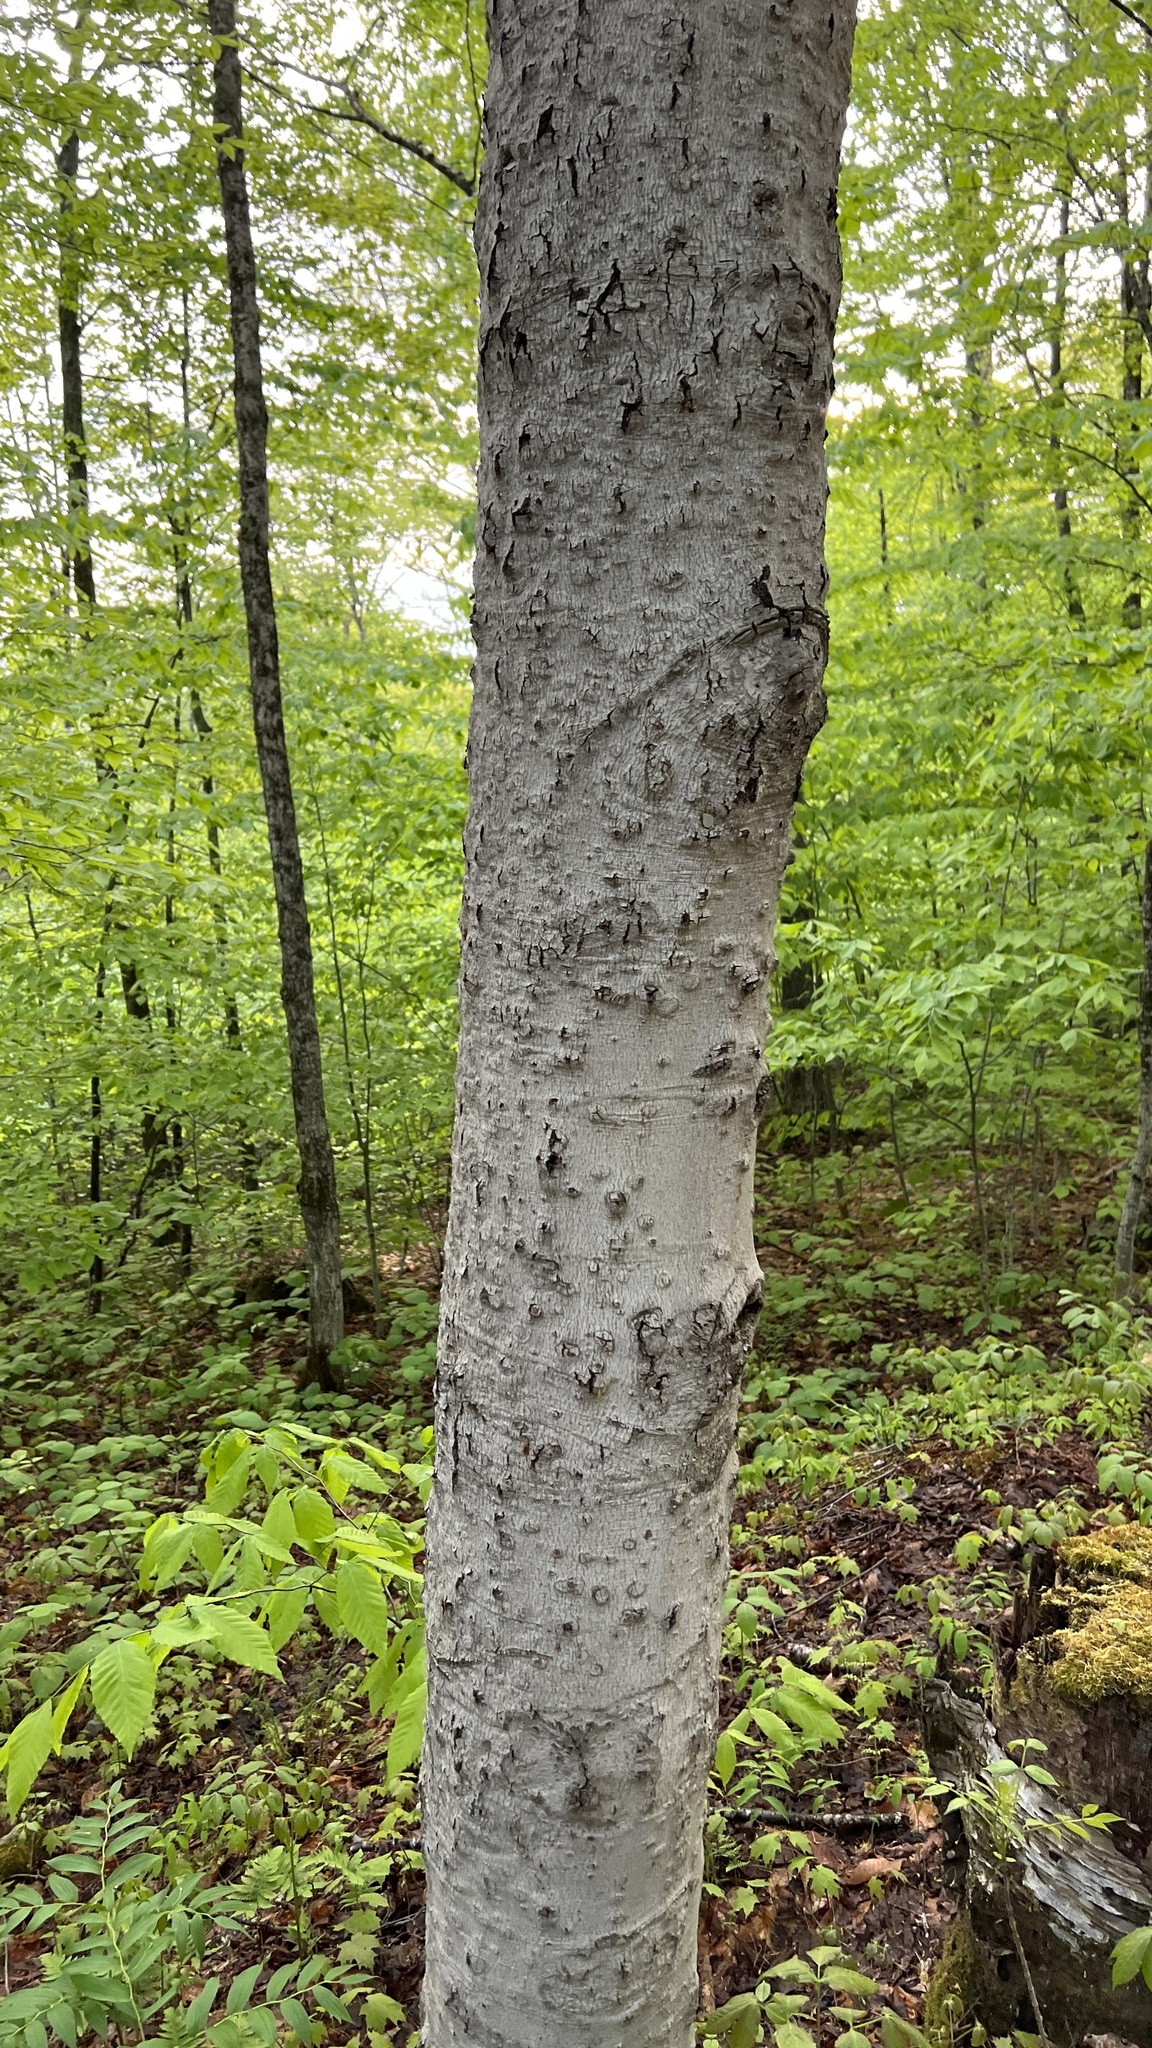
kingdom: Plantae
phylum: Tracheophyta
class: Magnoliopsida
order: Fagales
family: Fagaceae
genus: Fagus
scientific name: Fagus grandifolia
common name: American beech
